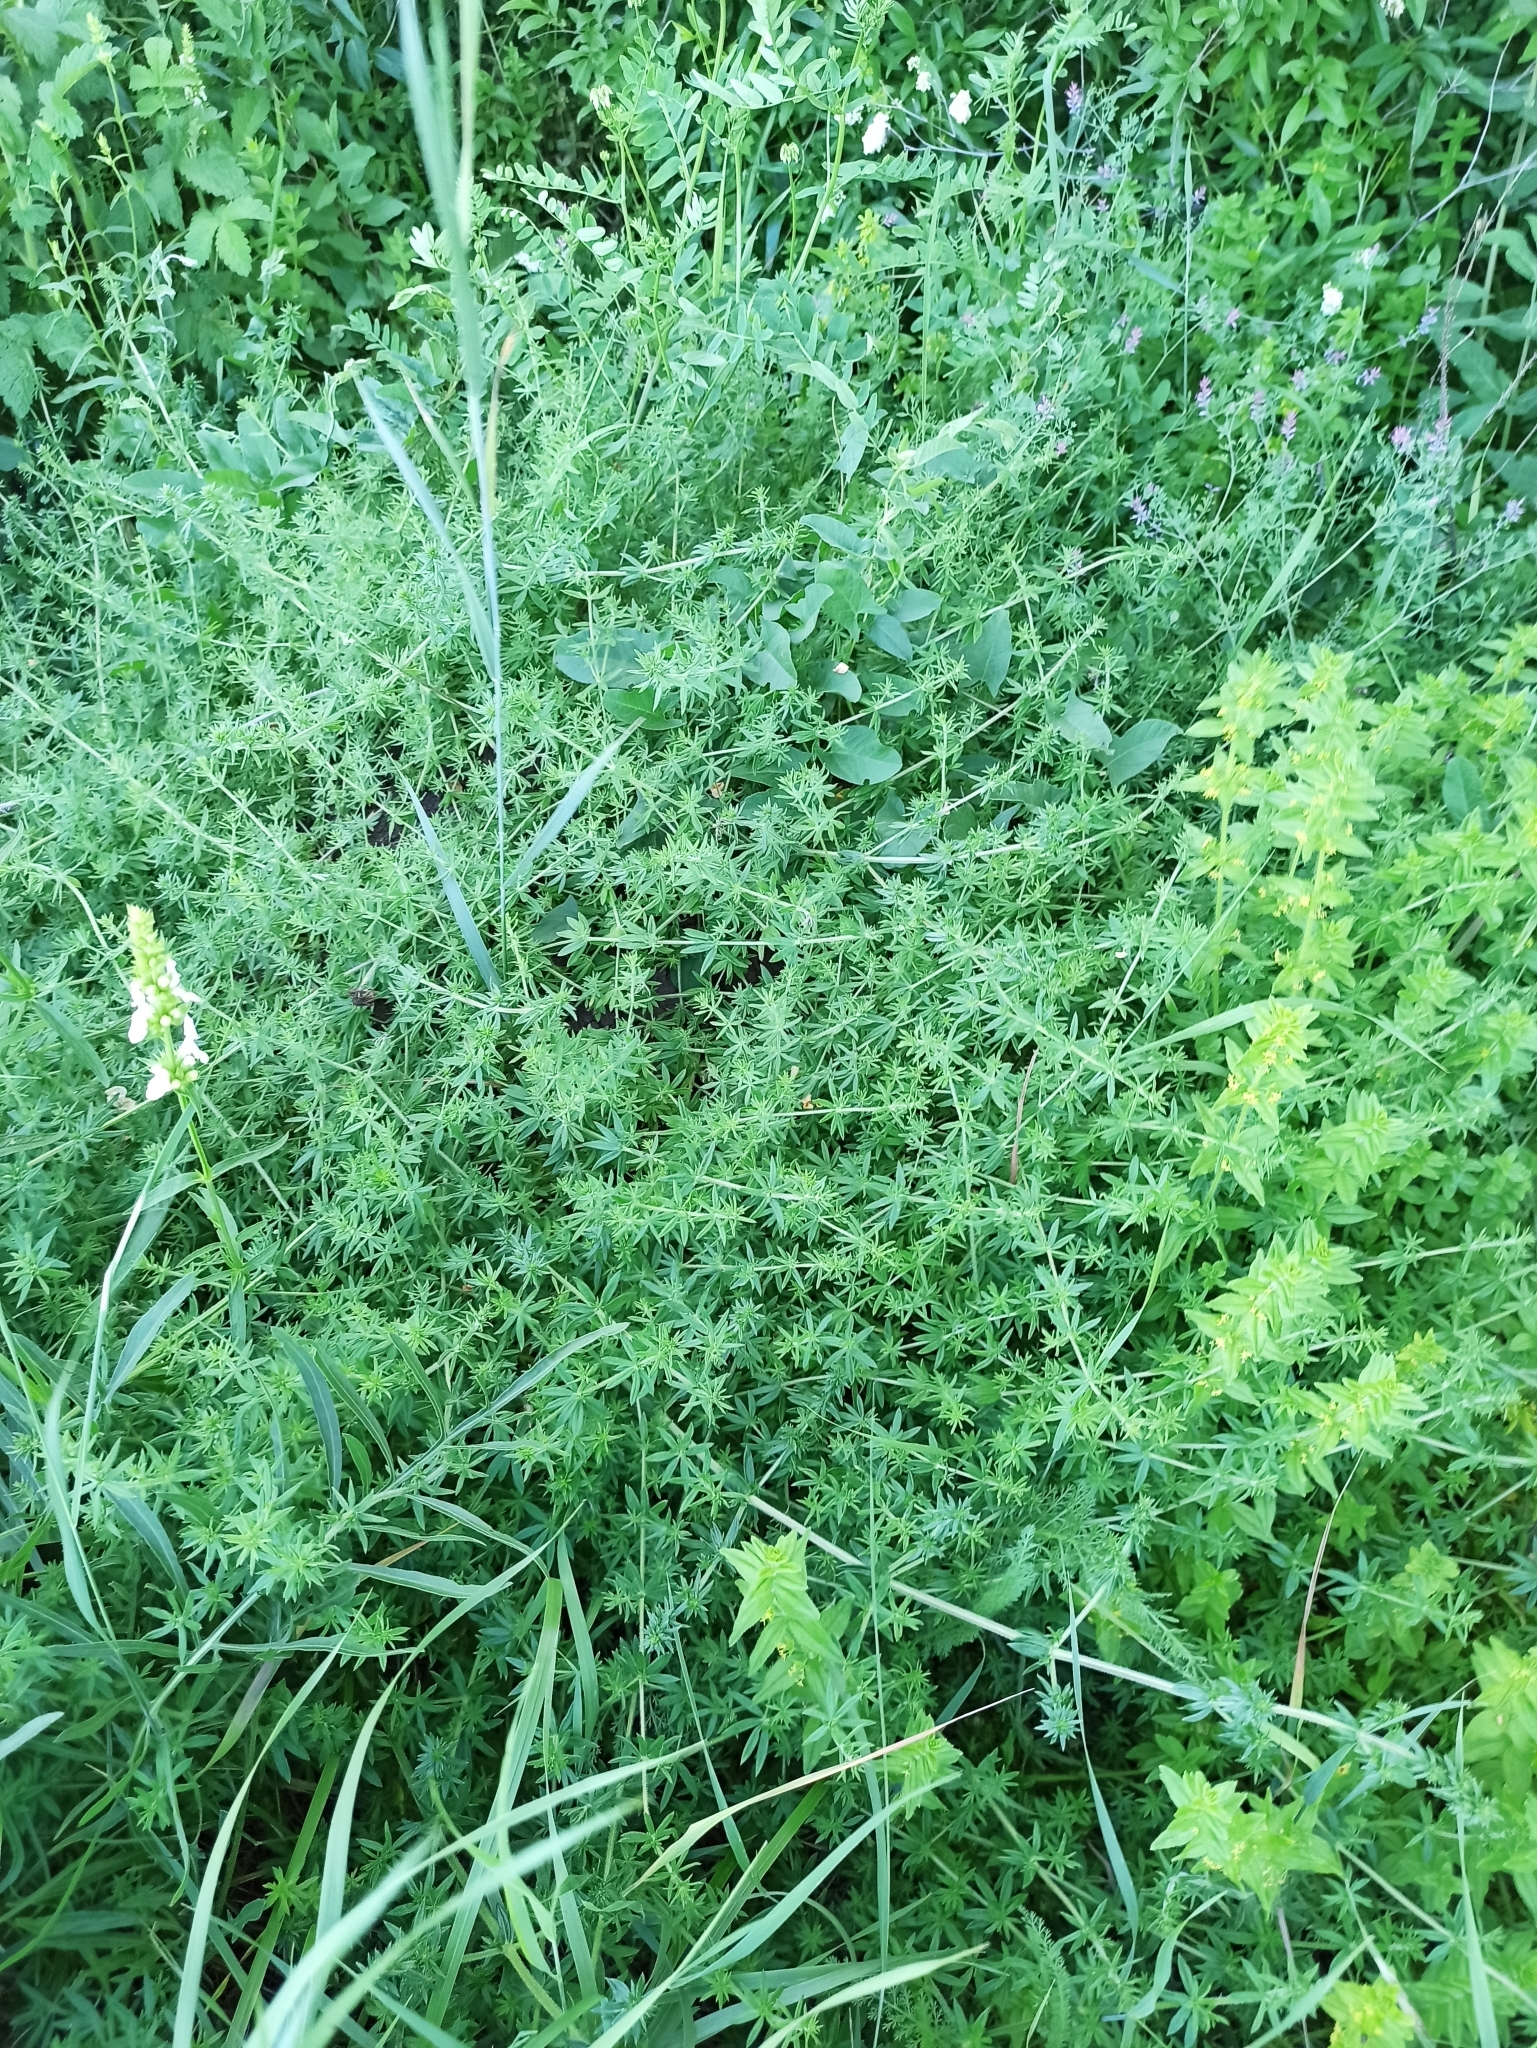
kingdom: Plantae
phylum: Tracheophyta
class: Magnoliopsida
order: Gentianales
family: Rubiaceae
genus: Galium
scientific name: Galium humifusum
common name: Spreading bedstraw
